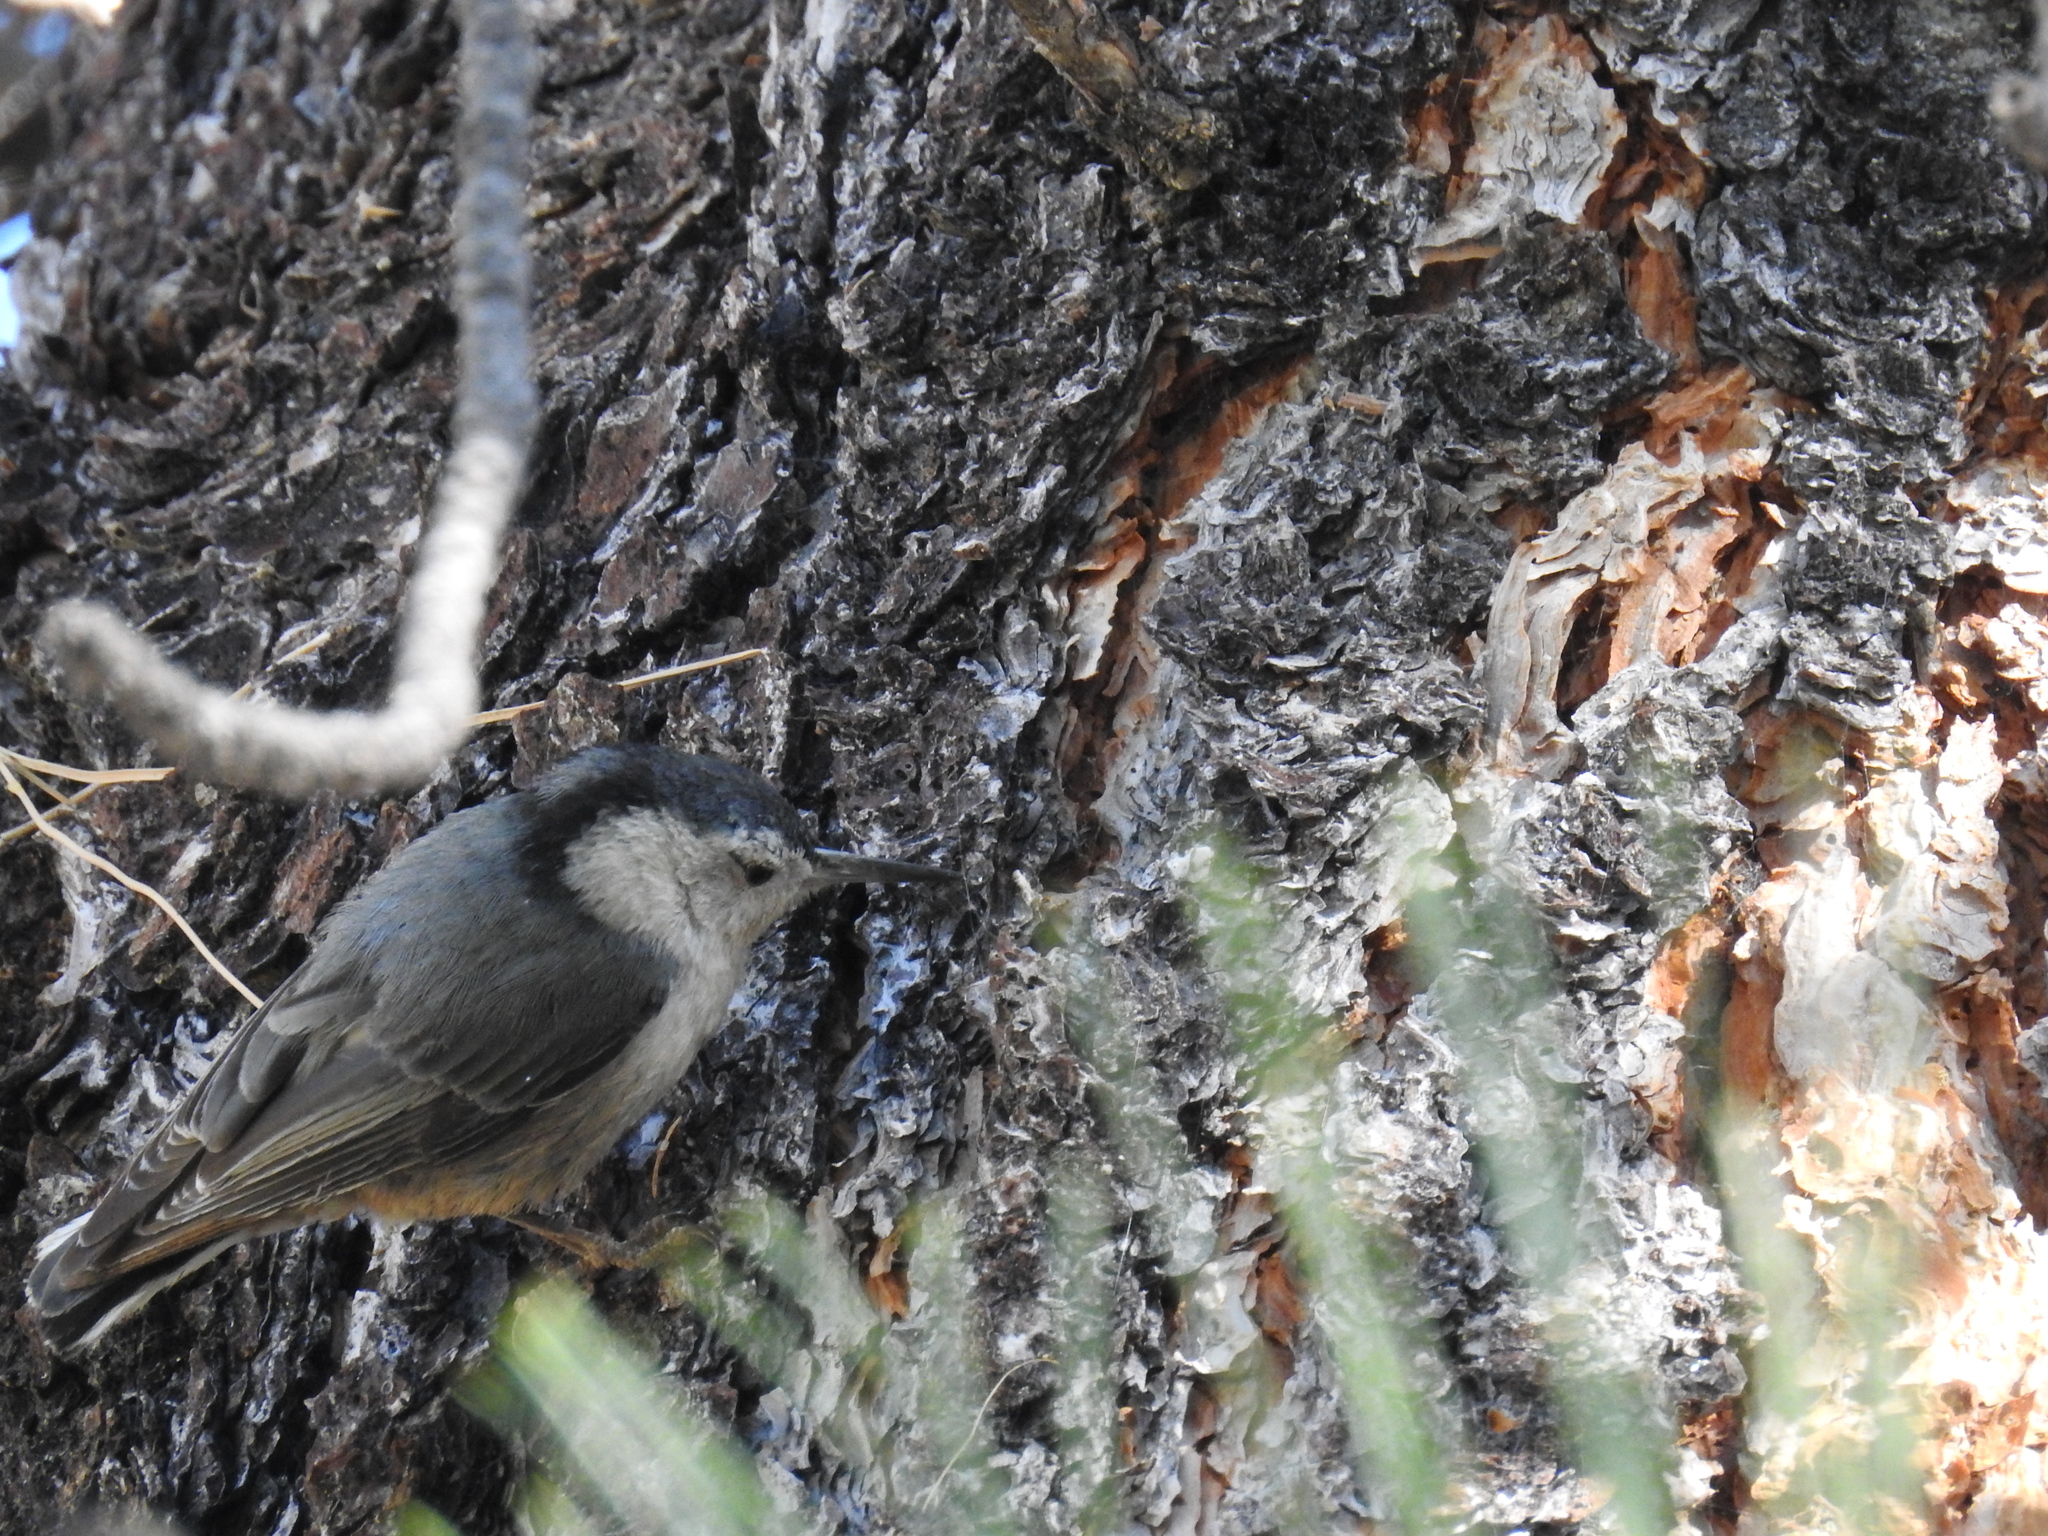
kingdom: Animalia
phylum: Chordata
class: Aves
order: Passeriformes
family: Sittidae
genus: Sitta
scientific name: Sitta carolinensis
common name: White-breasted nuthatch
